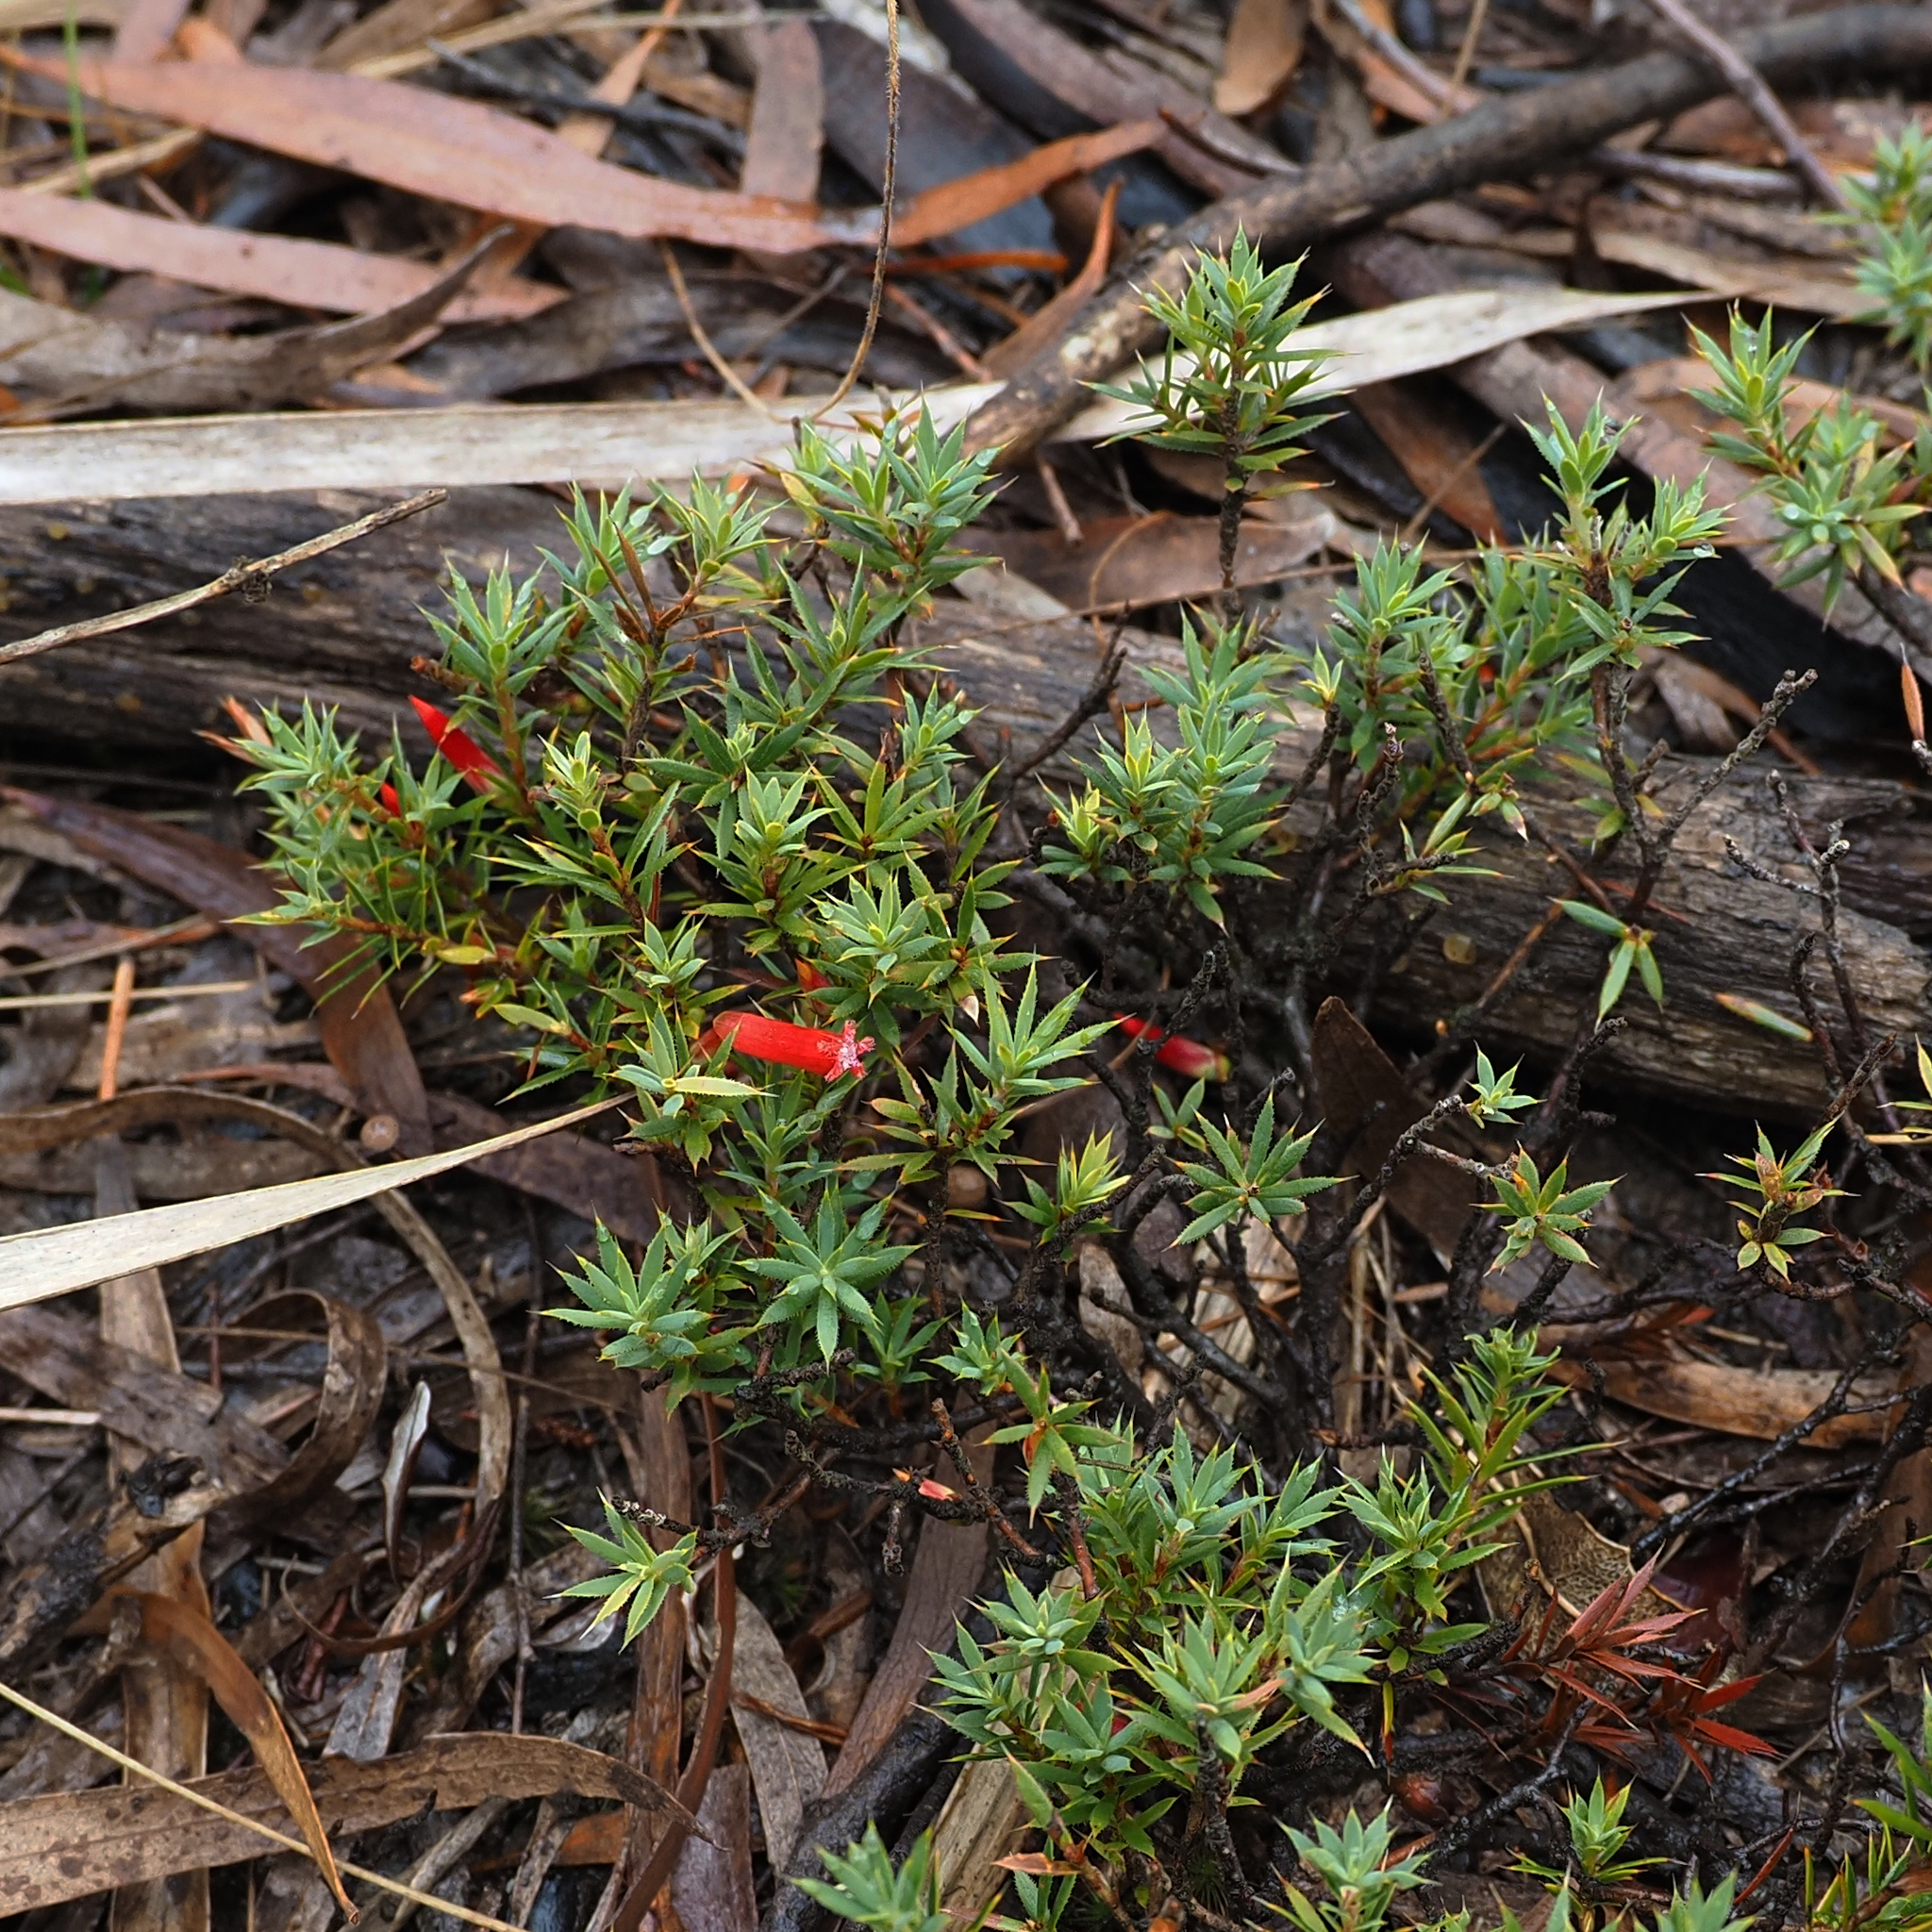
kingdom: Plantae
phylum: Tracheophyta
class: Magnoliopsida
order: Ericales
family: Ericaceae
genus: Styphelia
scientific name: Styphelia humifusa
